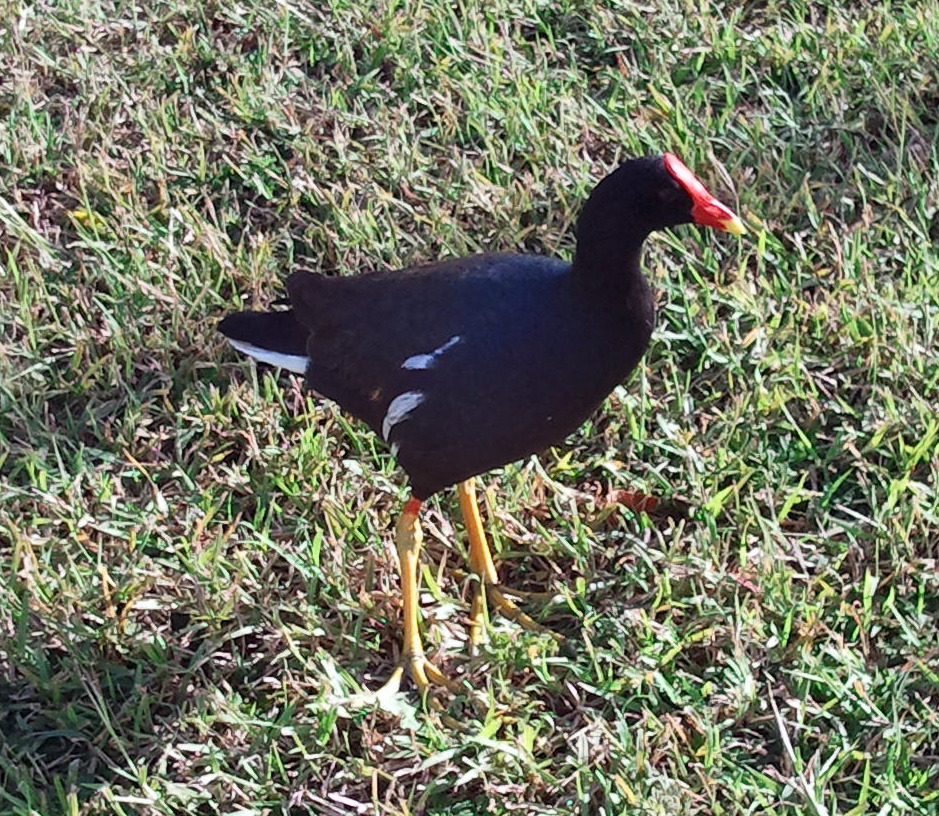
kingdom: Animalia
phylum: Chordata
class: Aves
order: Gruiformes
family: Rallidae
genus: Gallinula
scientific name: Gallinula chloropus
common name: Common moorhen
